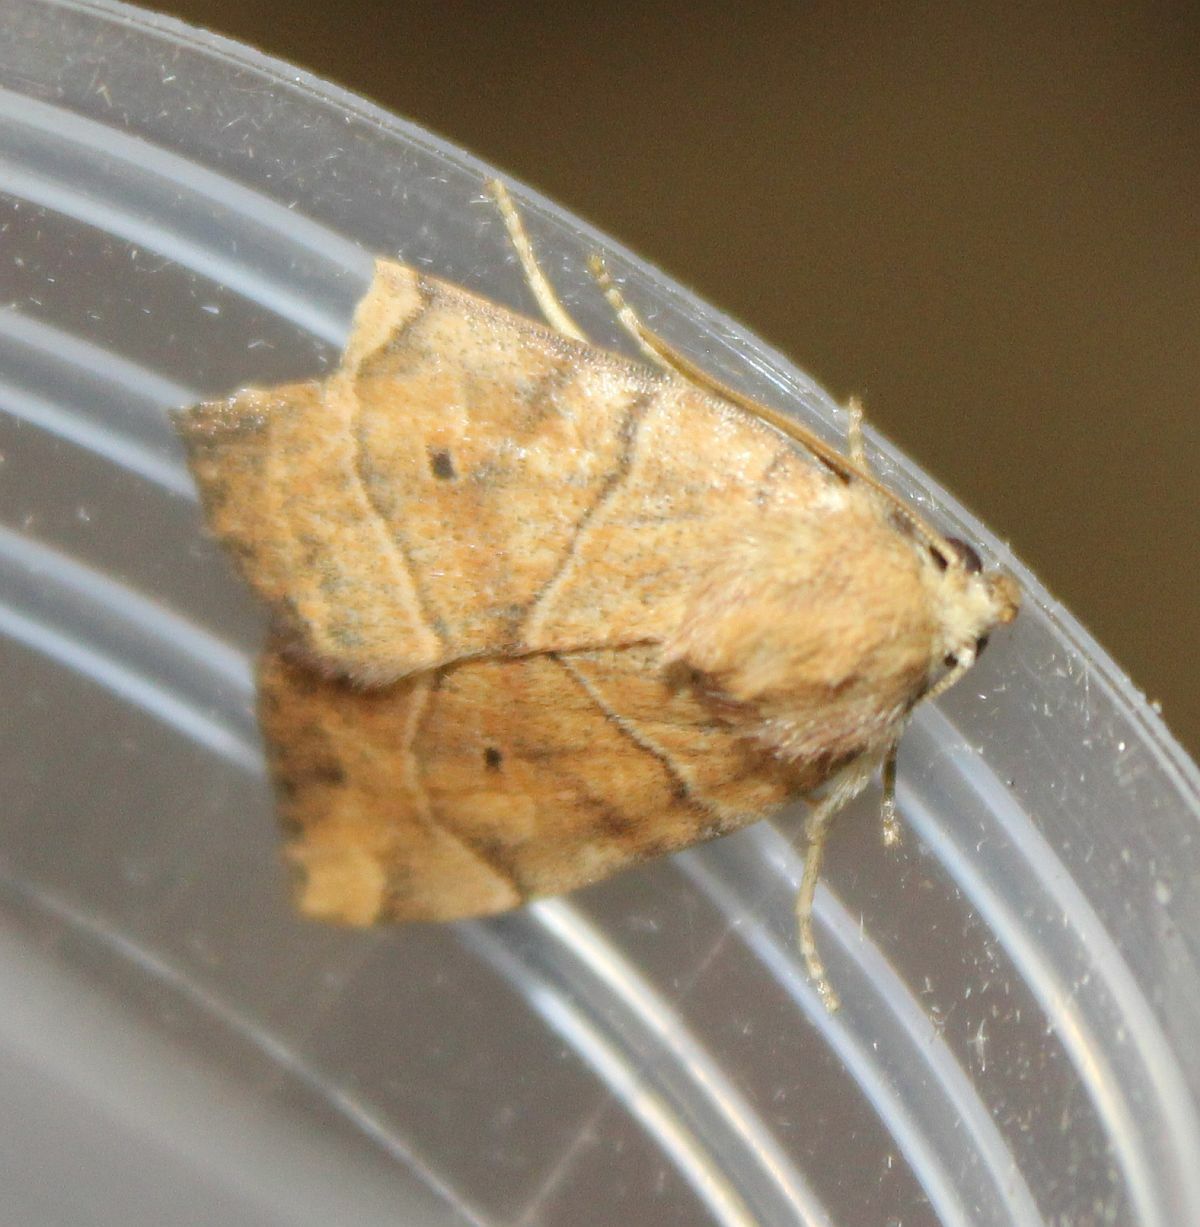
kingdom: Animalia
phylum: Arthropoda
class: Insecta
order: Lepidoptera
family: Noctuidae
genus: Cosmia
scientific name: Cosmia trapezina
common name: Dun-bar
